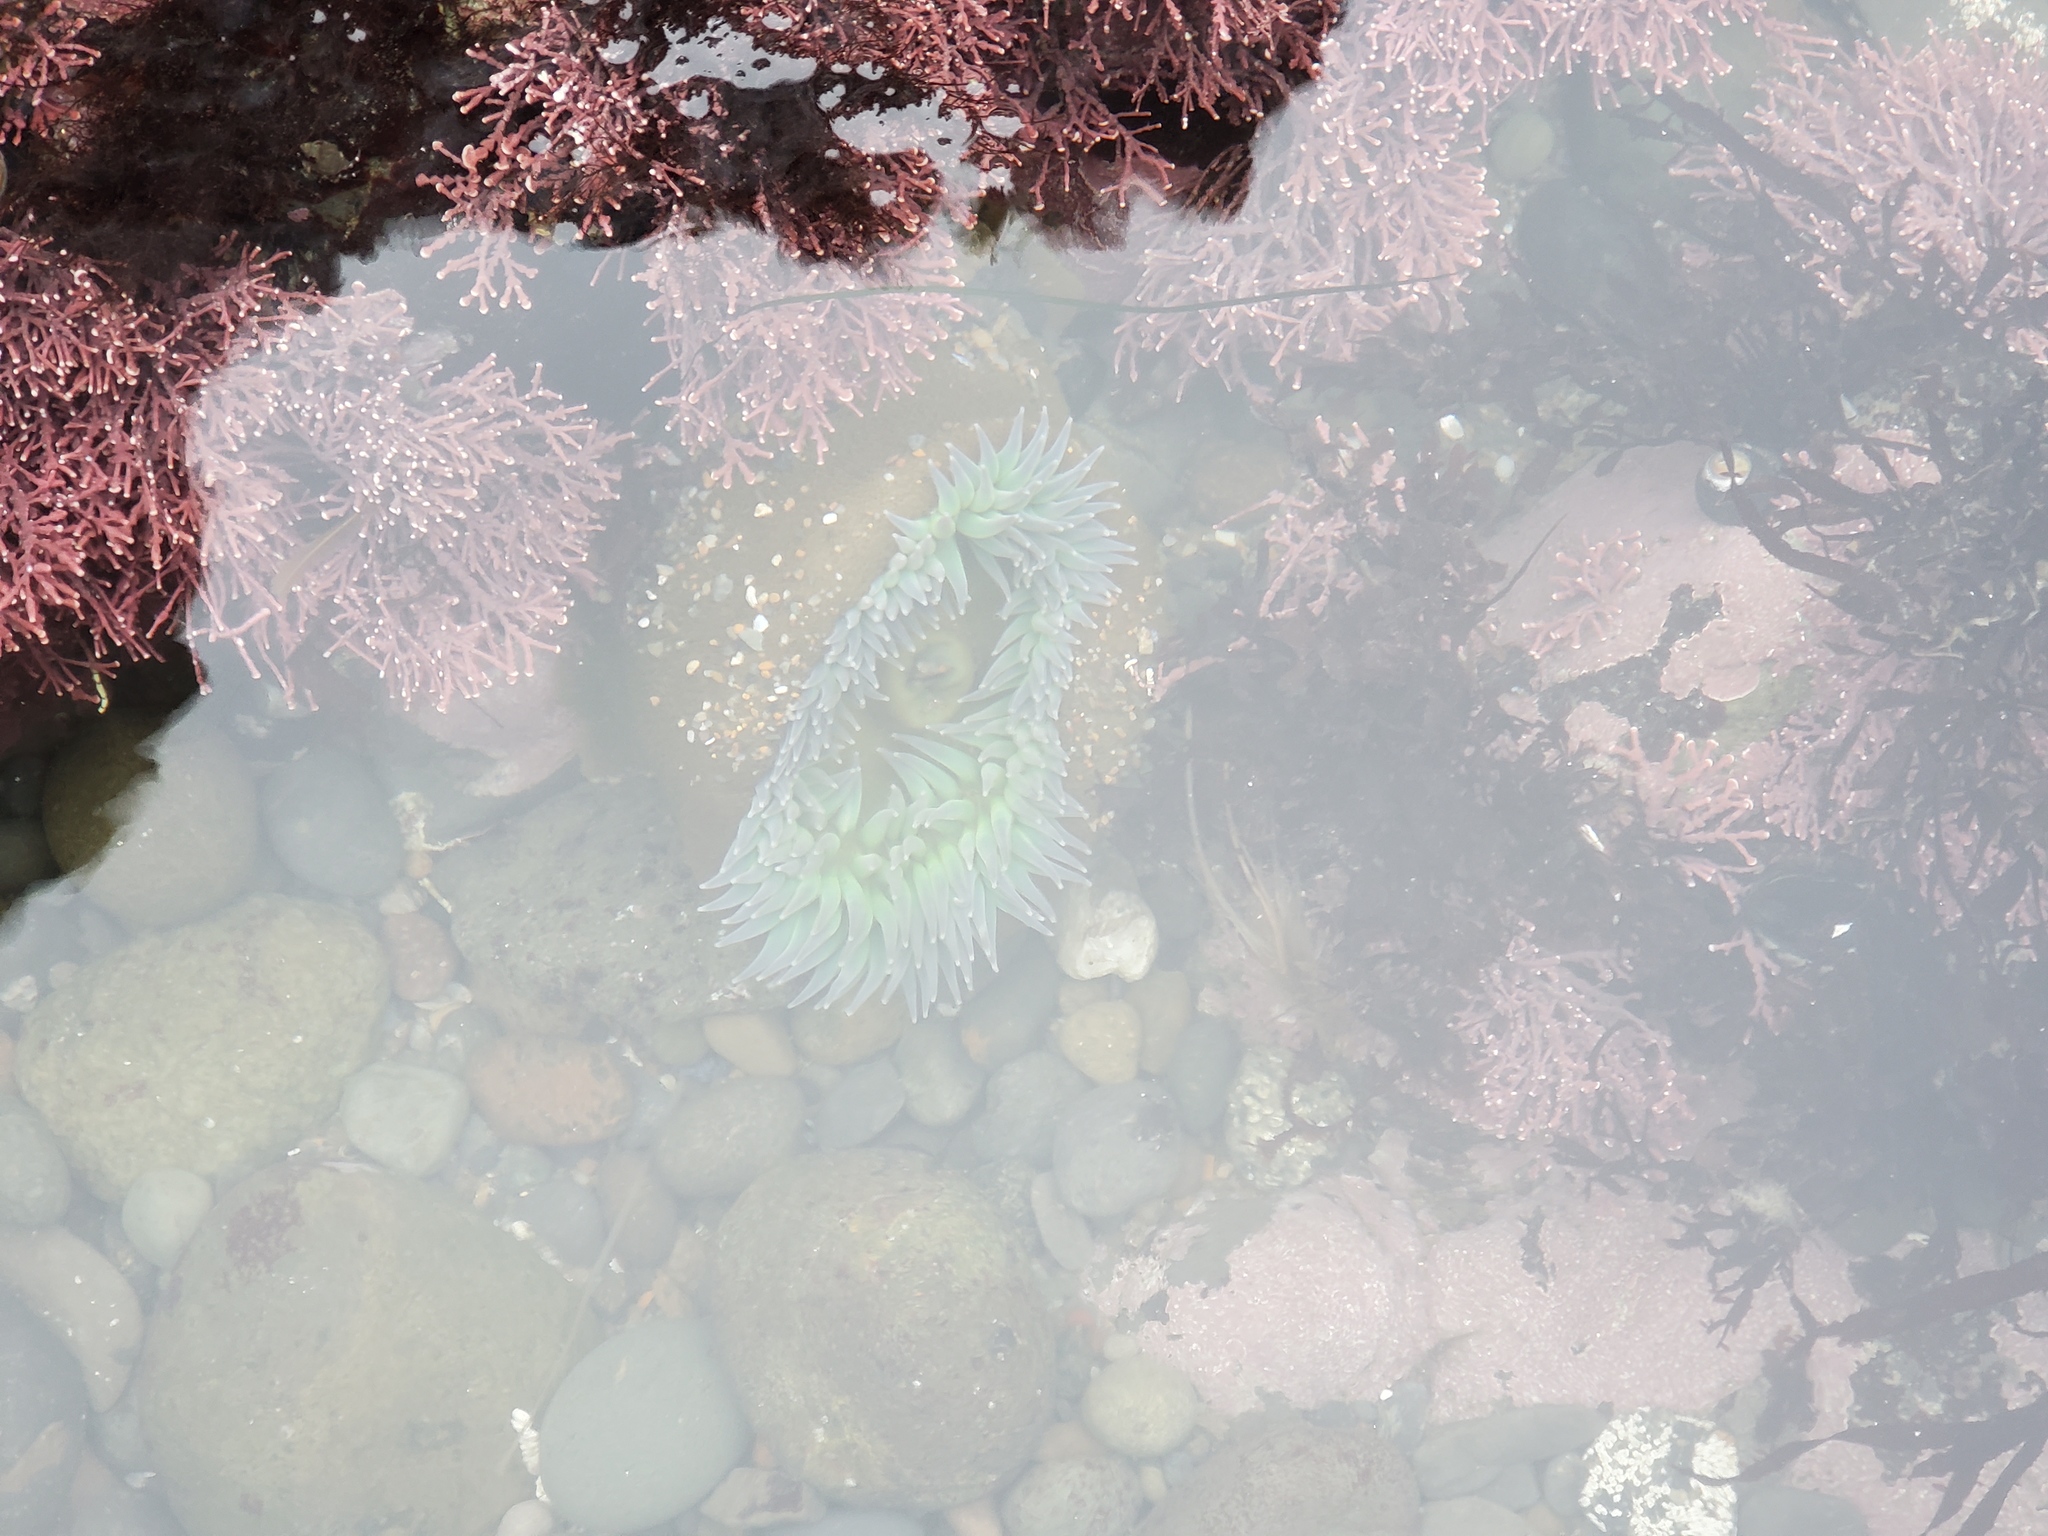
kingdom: Animalia
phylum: Cnidaria
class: Anthozoa
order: Actiniaria
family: Actiniidae
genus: Anthopleura
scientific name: Anthopleura xanthogrammica
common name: Giant green anemone
